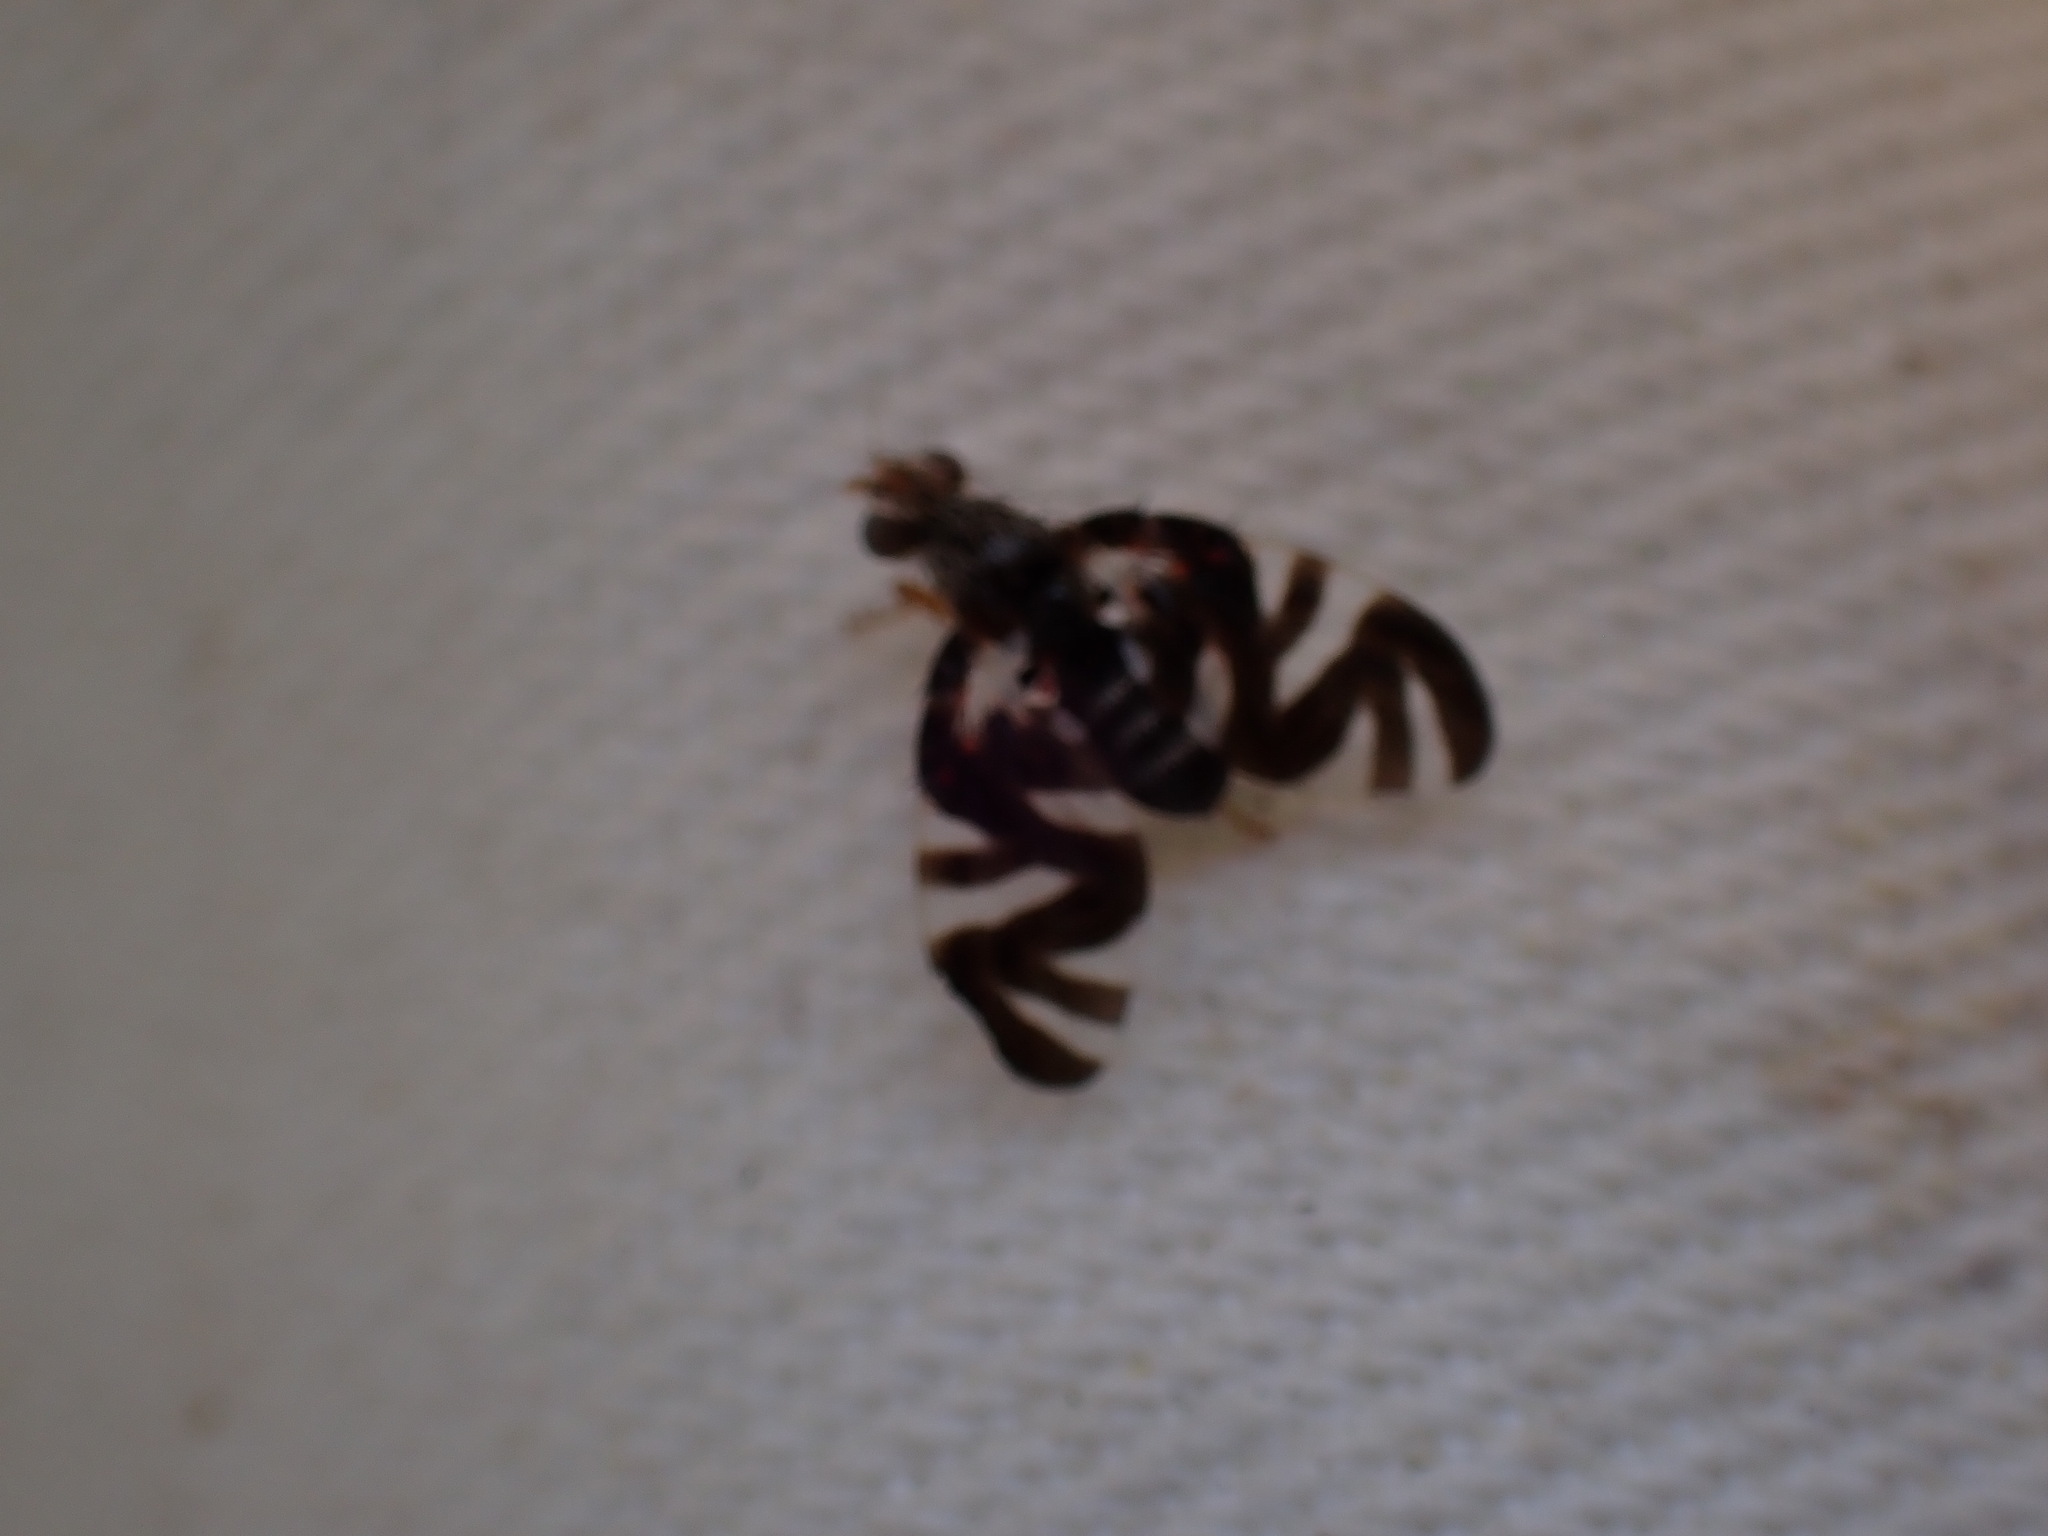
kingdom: Animalia
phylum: Arthropoda
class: Insecta
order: Diptera
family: Tephritidae
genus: Stenopa
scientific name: Stenopa vulnerata
